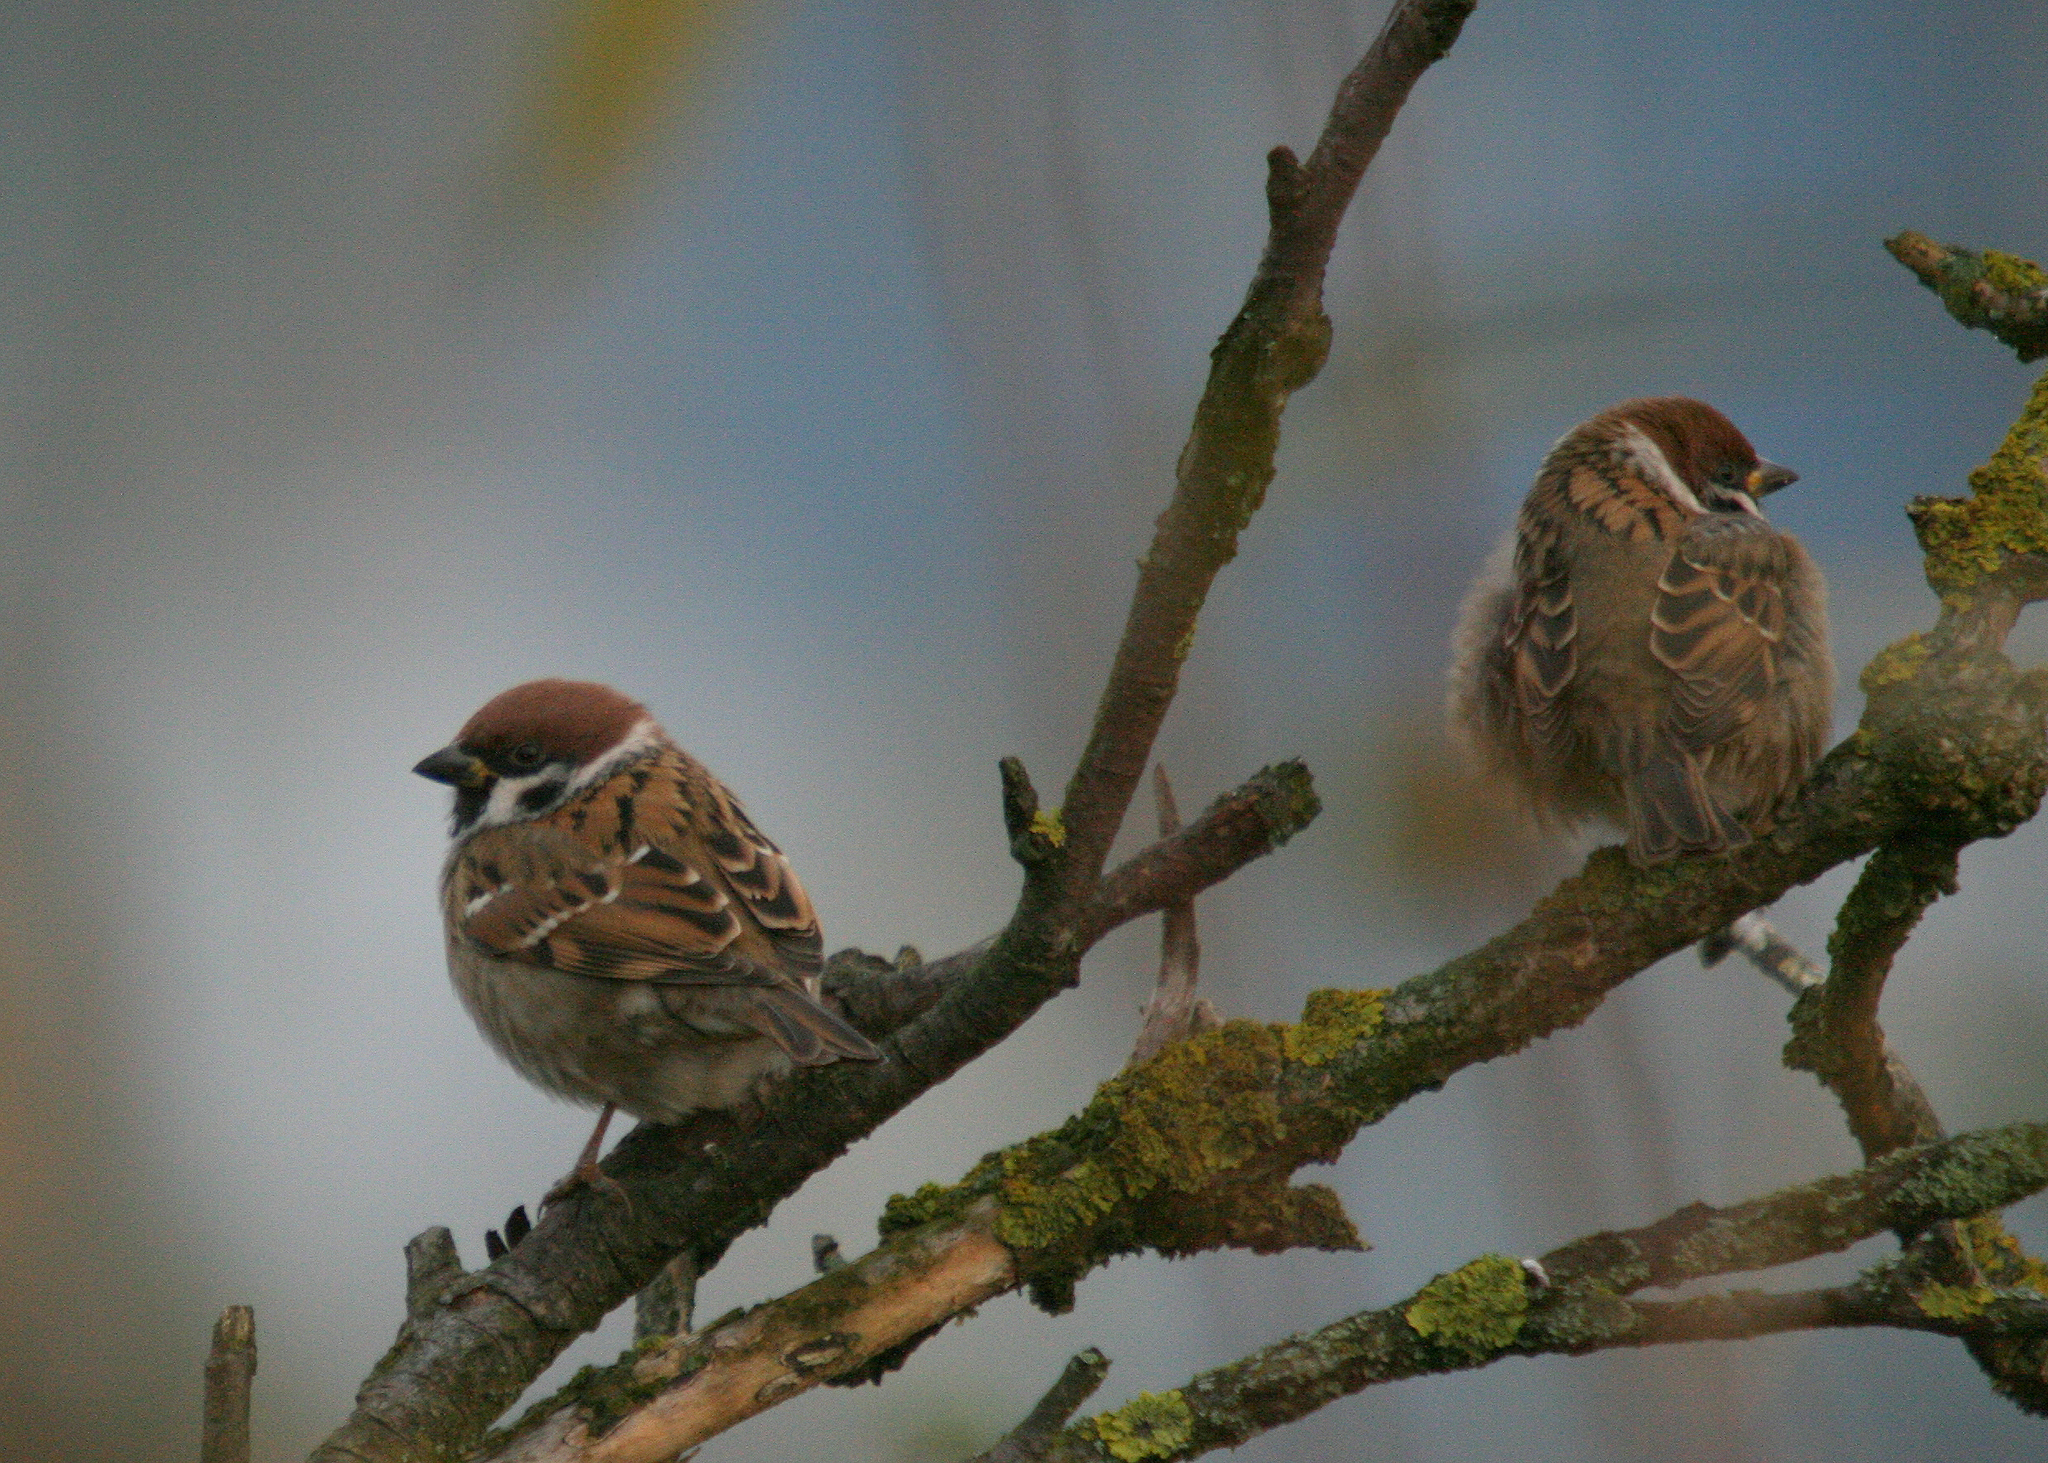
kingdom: Animalia
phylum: Chordata
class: Aves
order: Passeriformes
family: Passeridae
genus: Passer
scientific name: Passer montanus
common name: Eurasian tree sparrow
